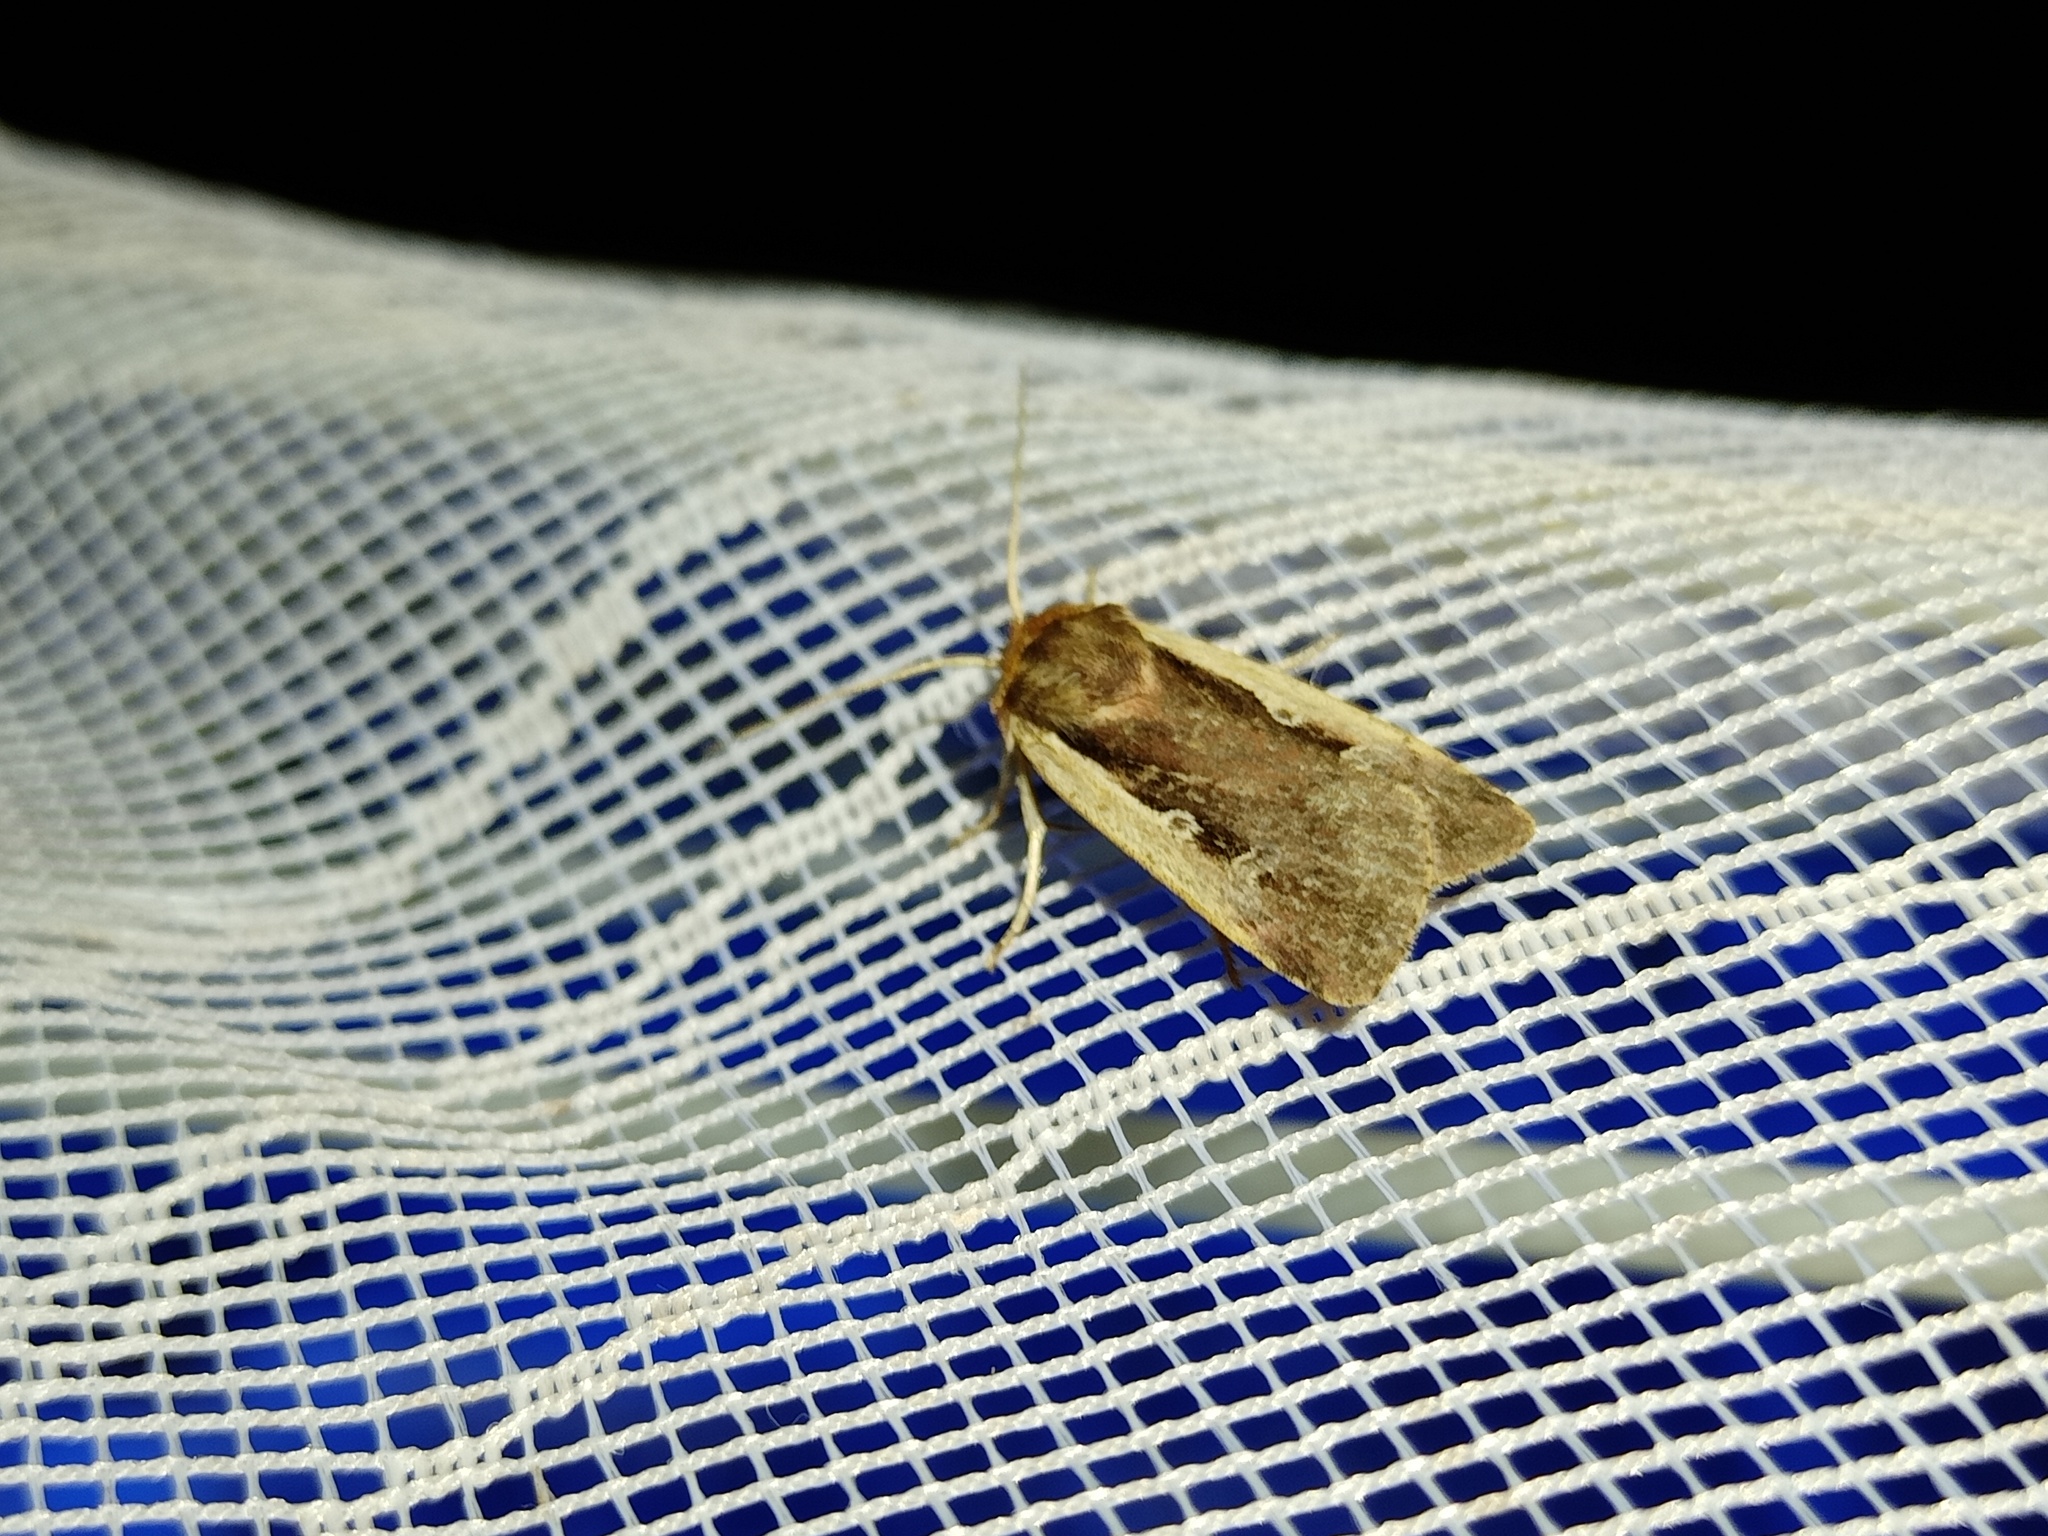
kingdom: Animalia
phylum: Arthropoda
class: Insecta
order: Lepidoptera
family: Noctuidae
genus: Ochropleura
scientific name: Ochropleura plecta
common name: Flame shoulder
